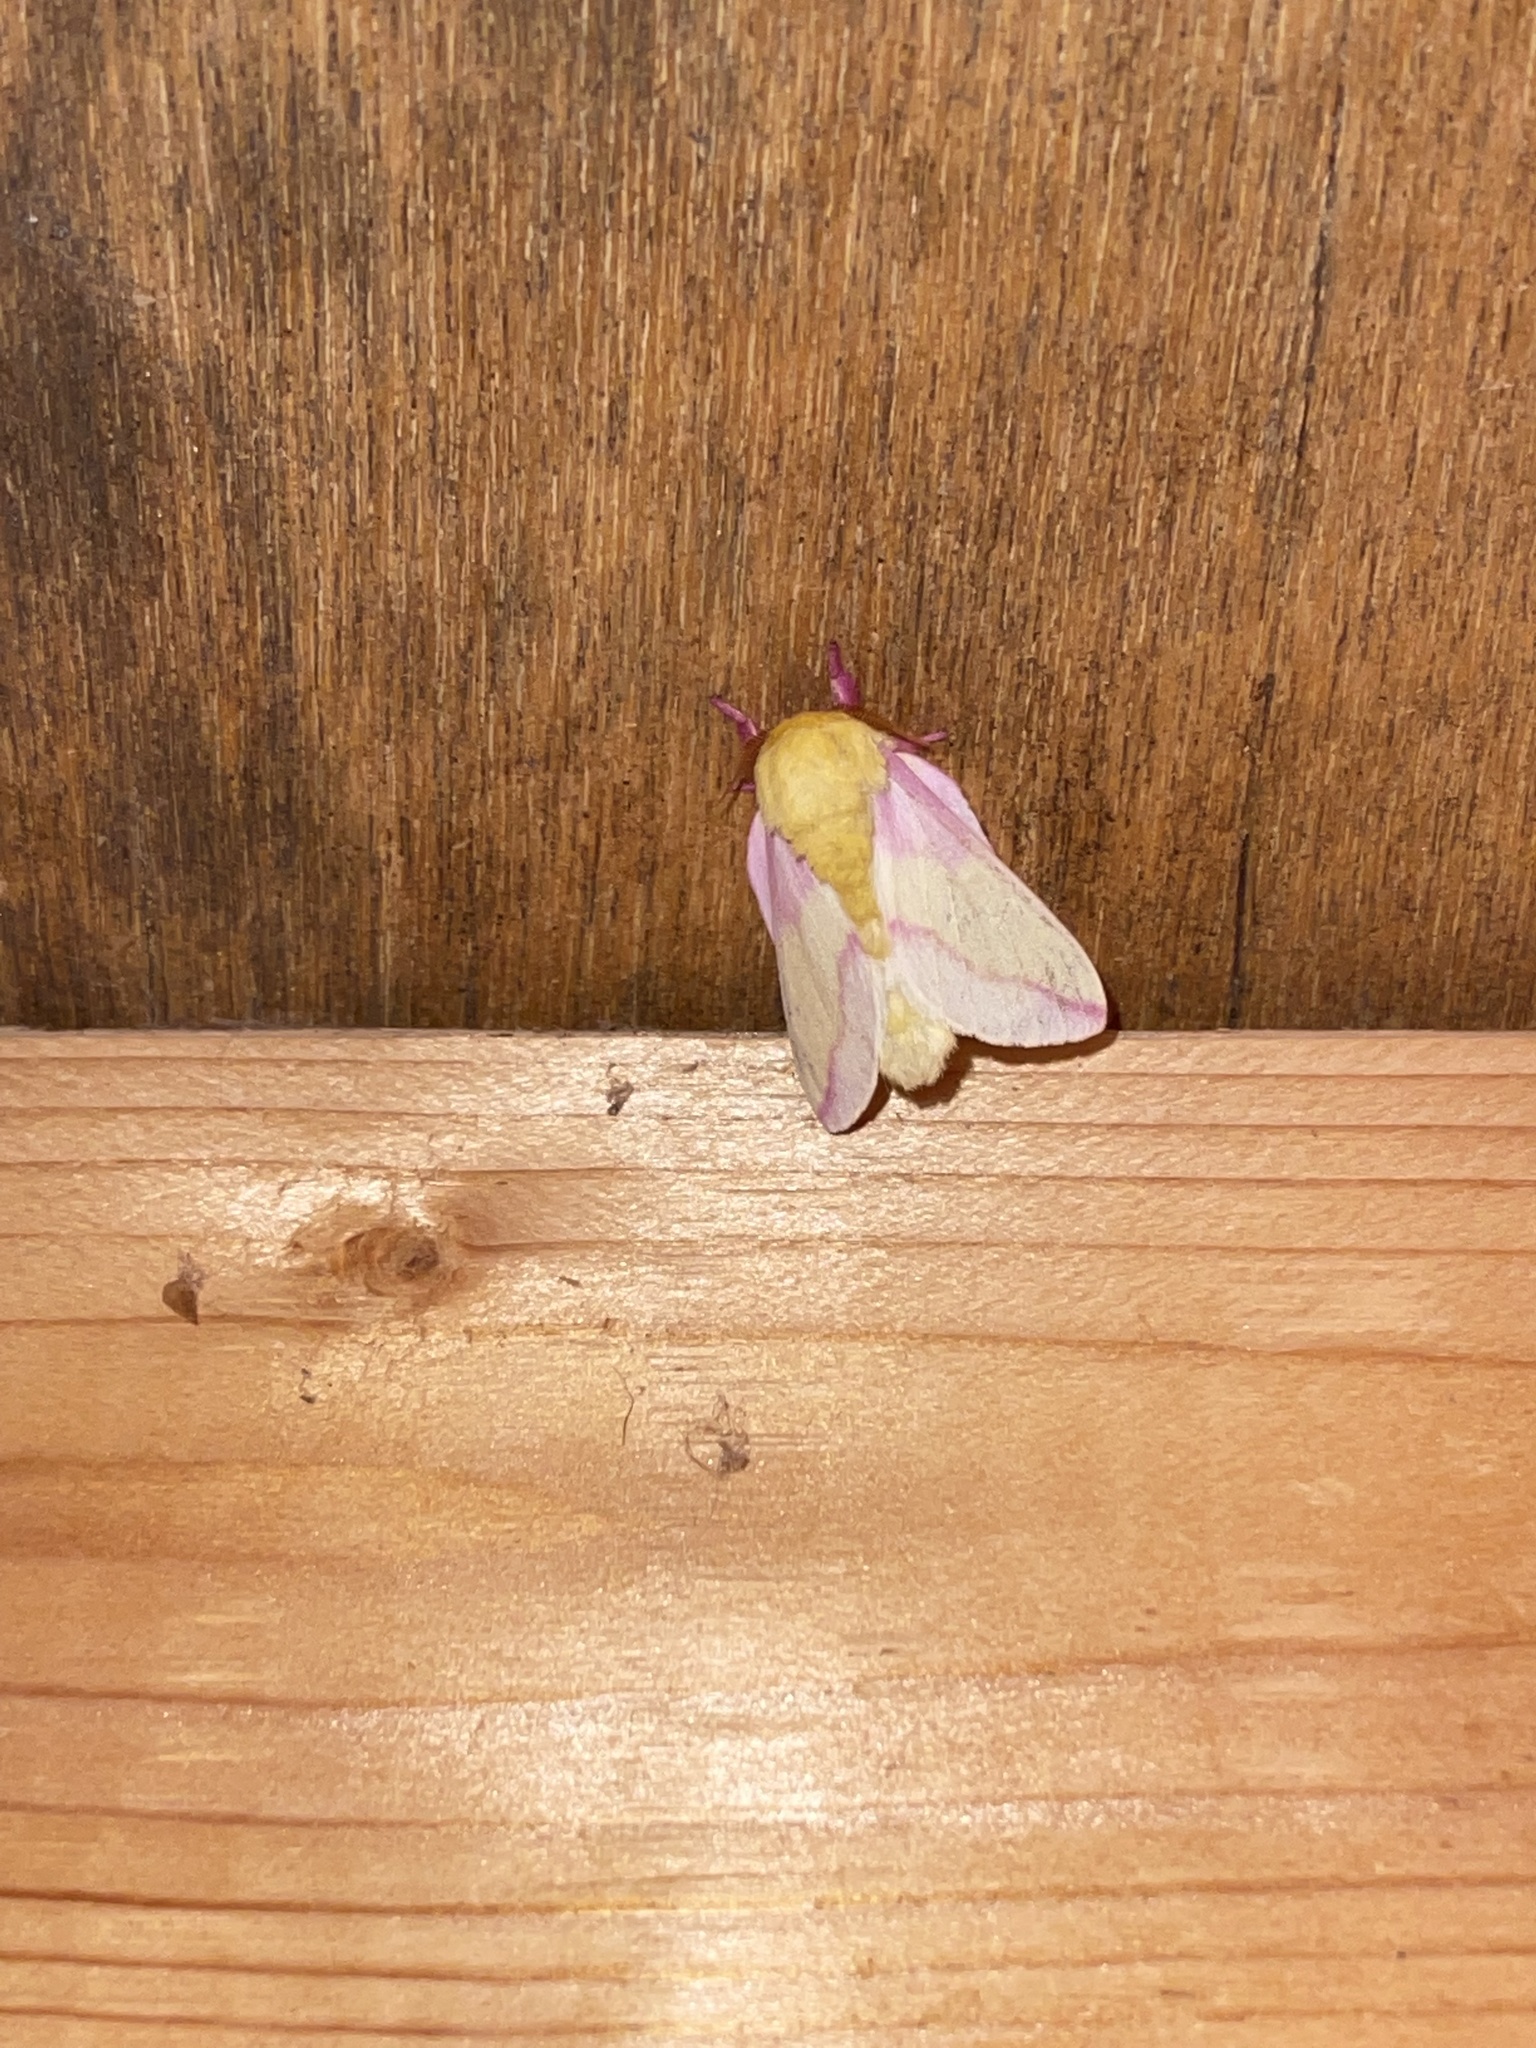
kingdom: Animalia
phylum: Arthropoda
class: Insecta
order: Lepidoptera
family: Saturniidae
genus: Dryocampa
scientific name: Dryocampa rubicunda
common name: Rosy maple moth
